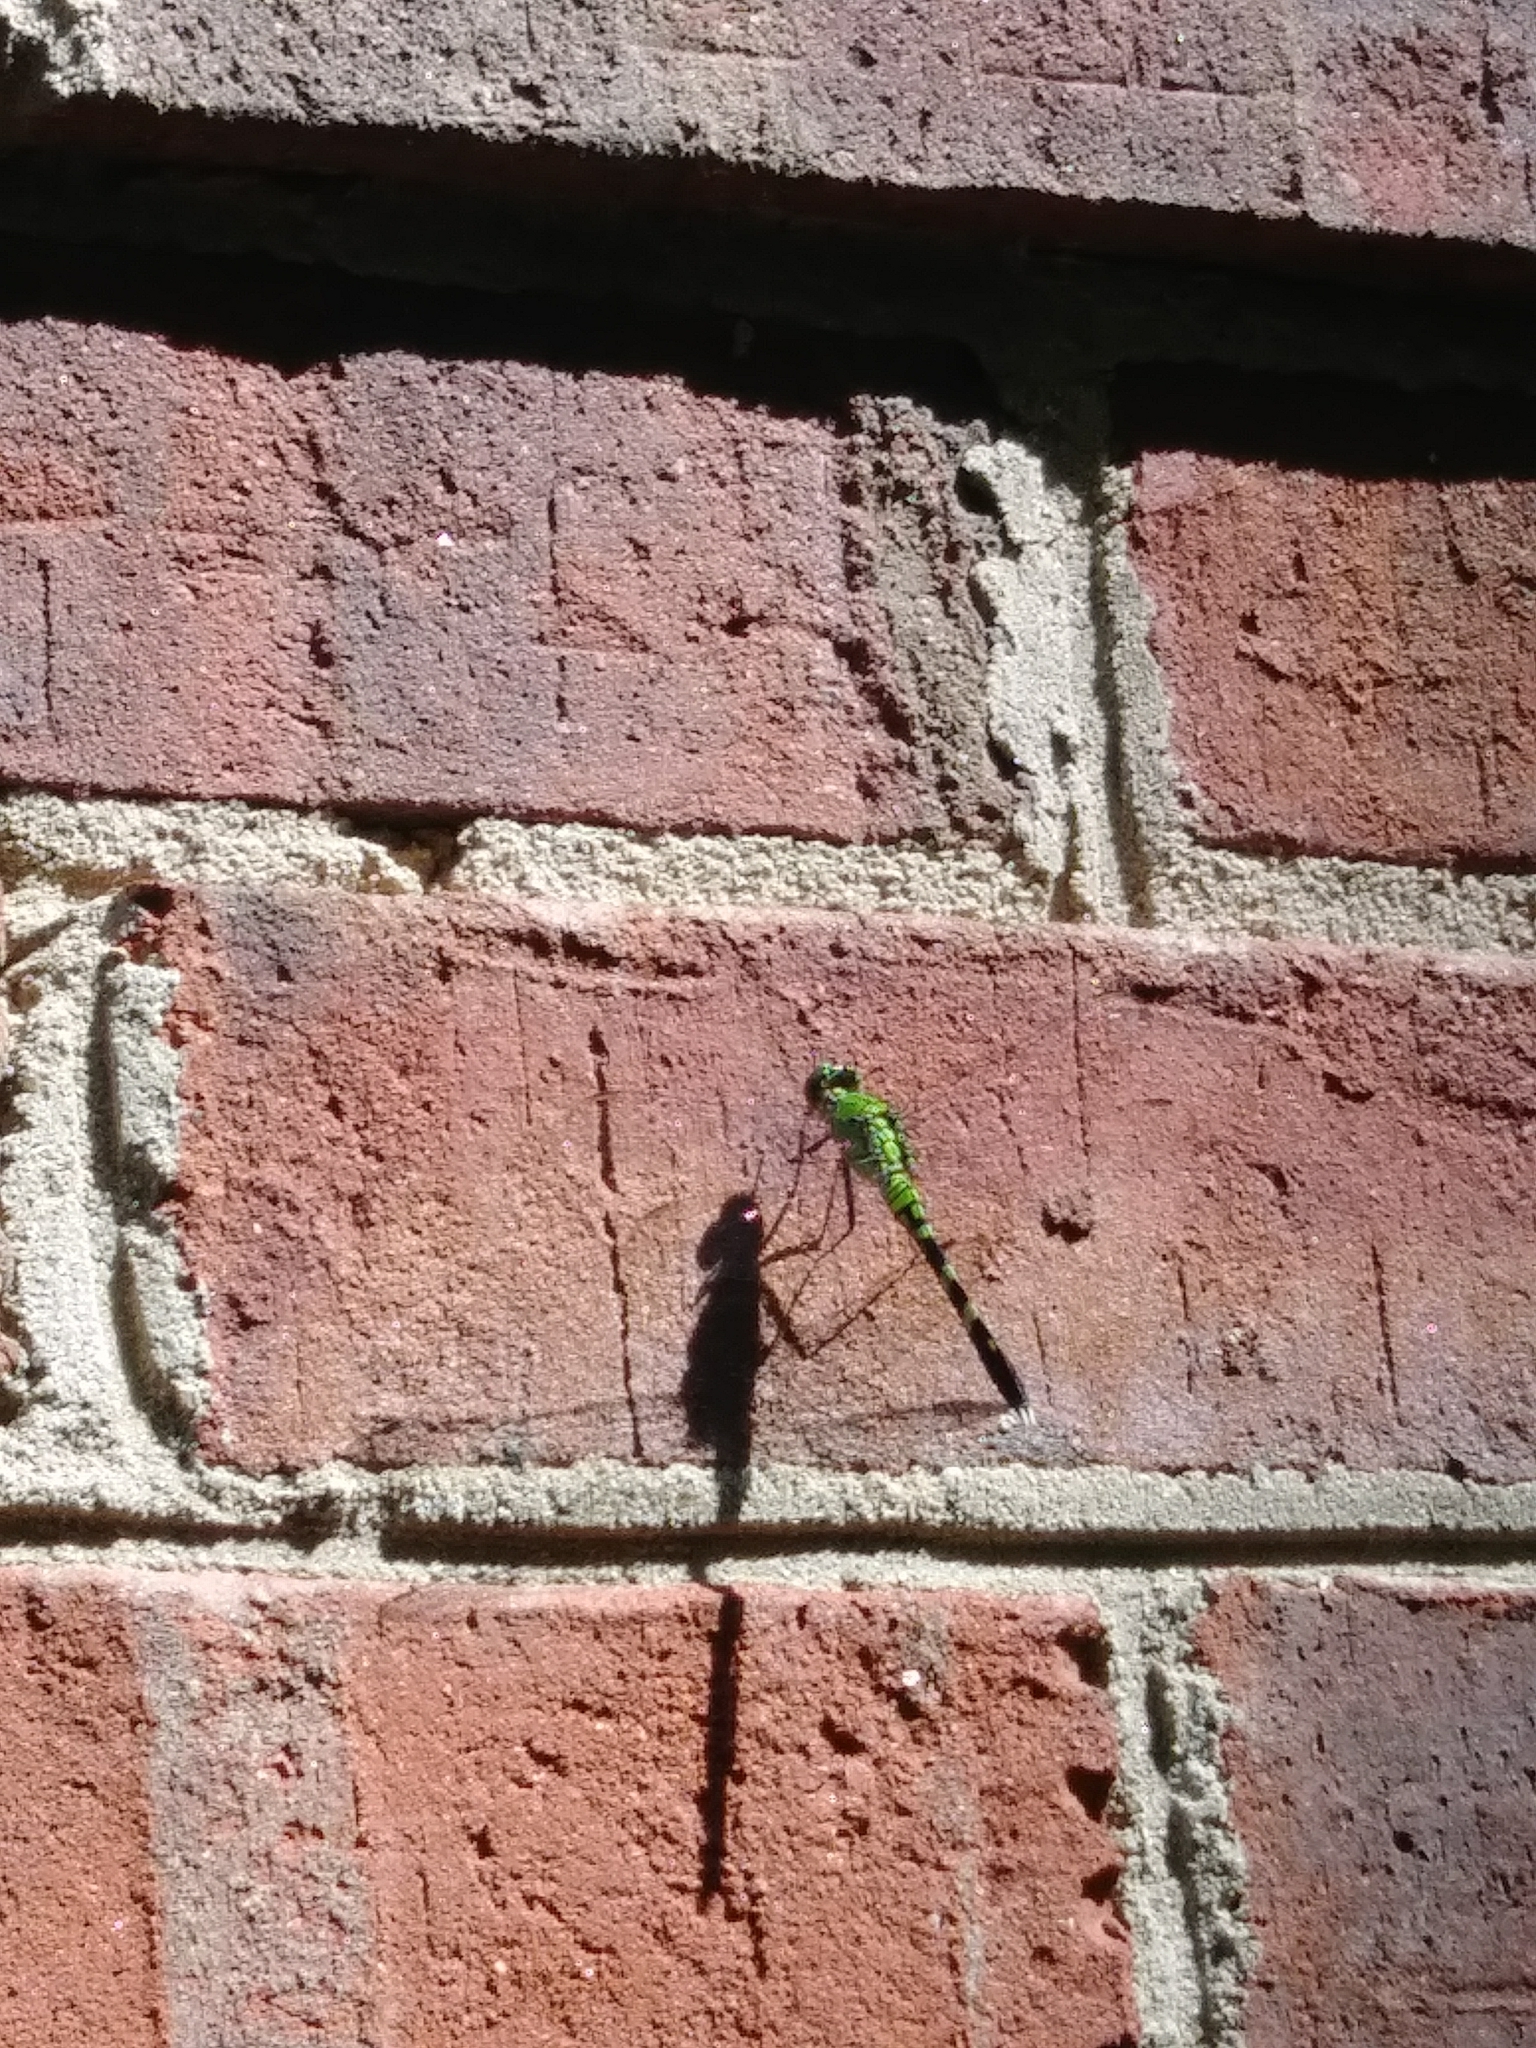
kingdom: Animalia
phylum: Arthropoda
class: Insecta
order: Odonata
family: Libellulidae
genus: Erythemis
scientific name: Erythemis simplicicollis
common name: Eastern pondhawk
